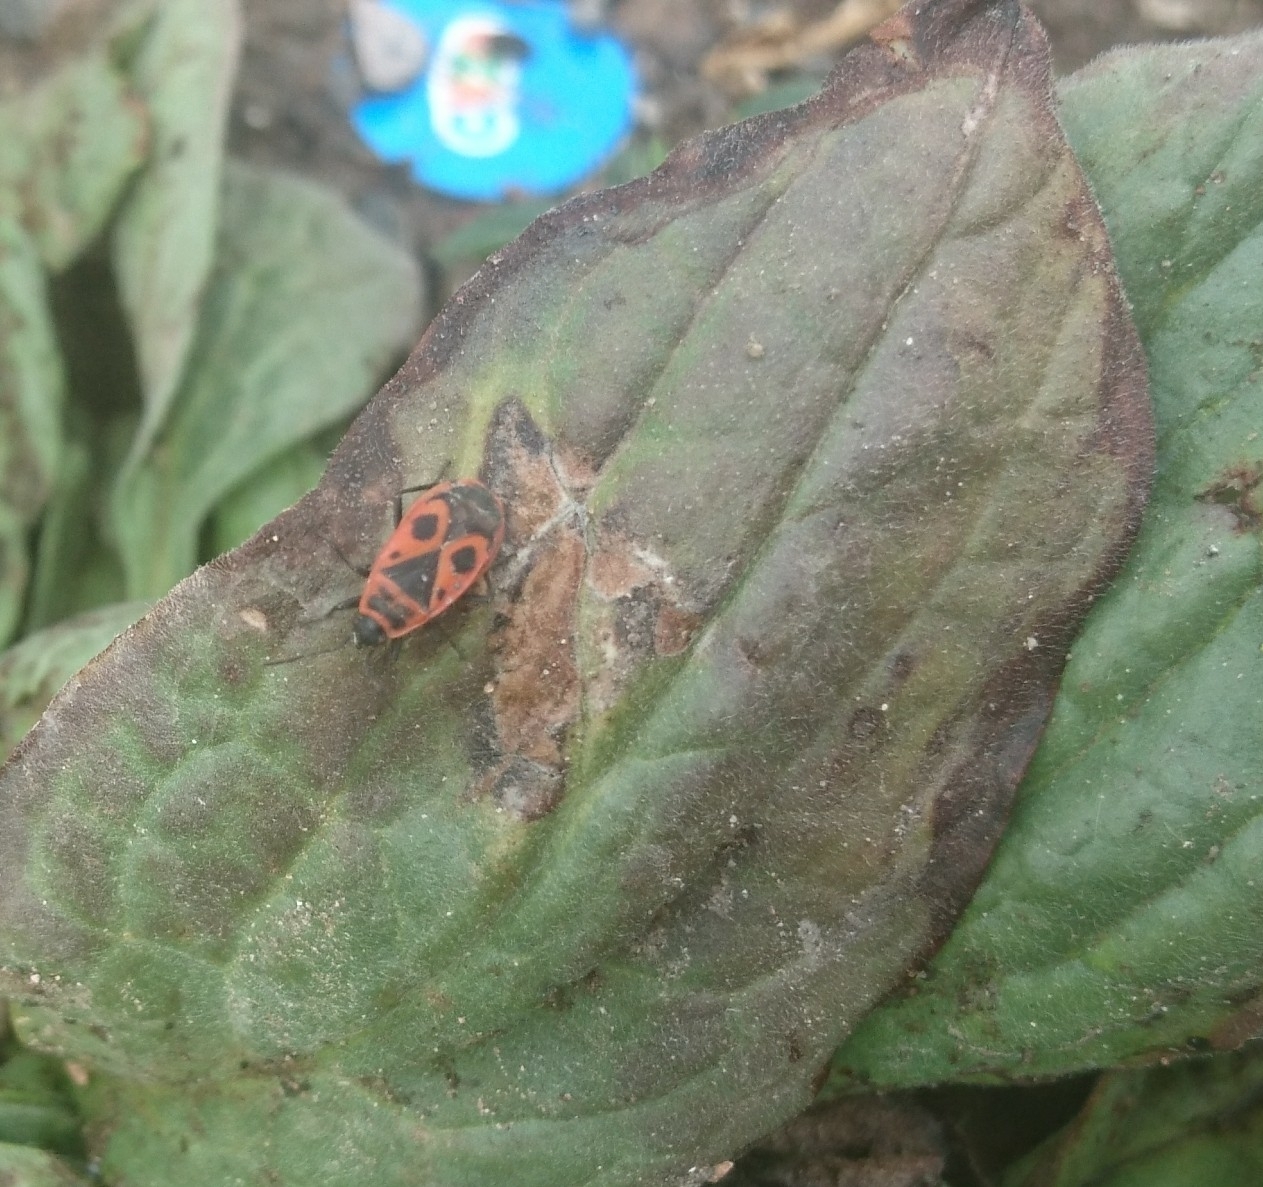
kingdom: Animalia
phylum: Arthropoda
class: Insecta
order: Hemiptera
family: Pyrrhocoridae
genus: Pyrrhocoris
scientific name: Pyrrhocoris apterus
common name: Firebug
